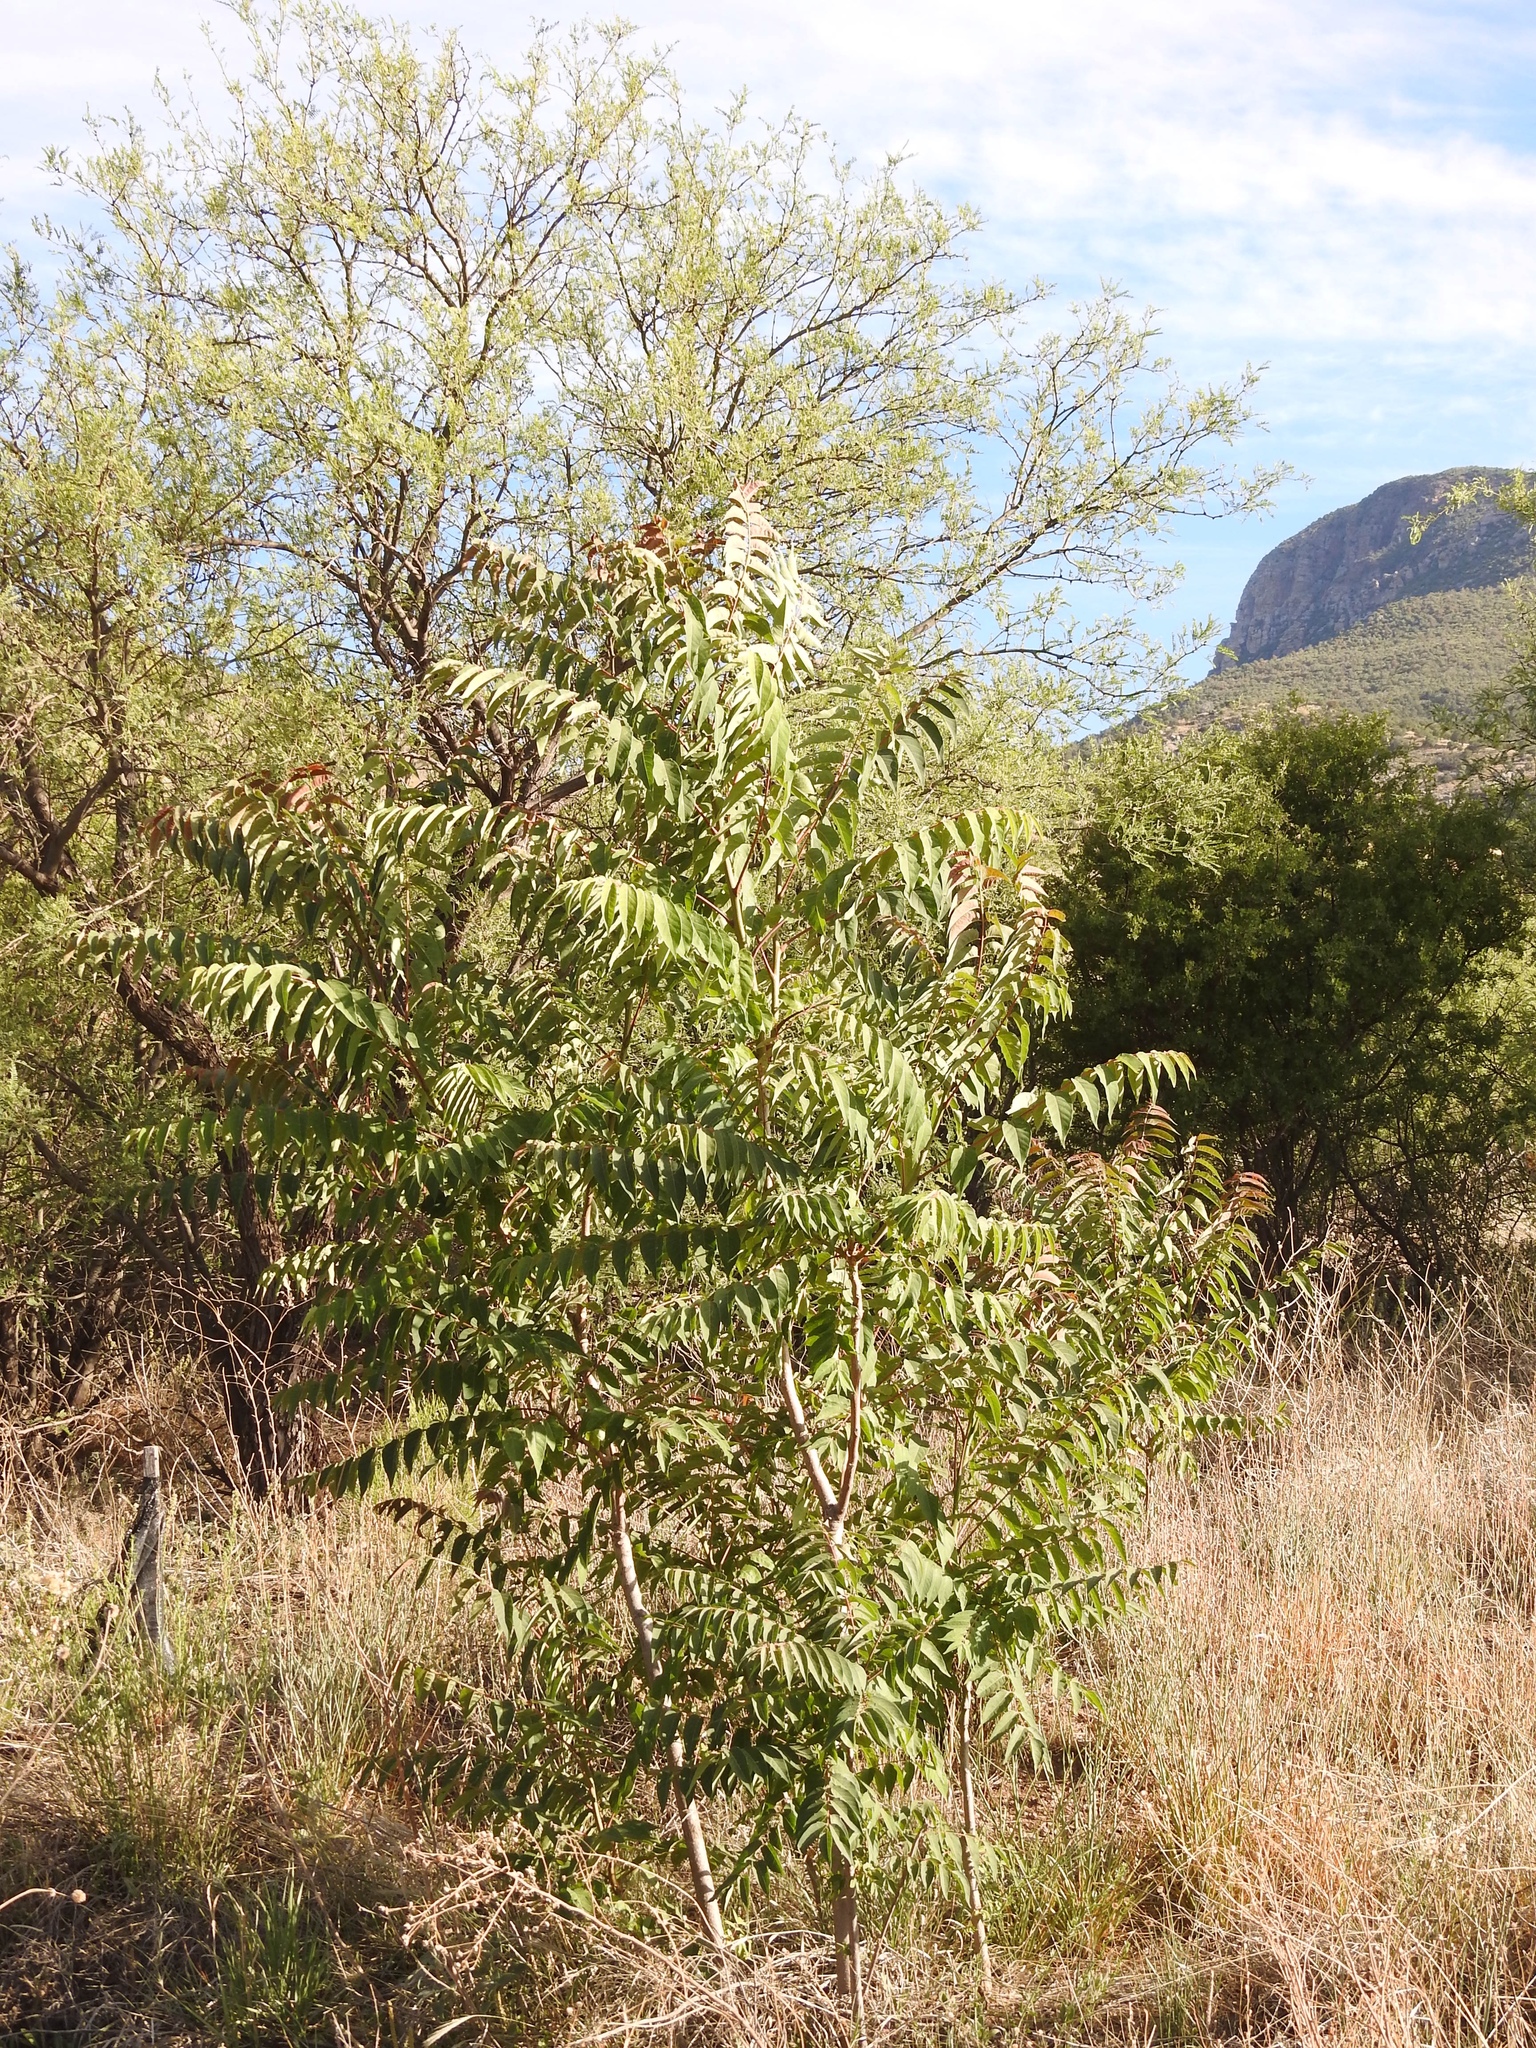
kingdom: Plantae
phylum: Tracheophyta
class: Magnoliopsida
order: Sapindales
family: Simaroubaceae
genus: Ailanthus
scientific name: Ailanthus altissima
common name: Tree-of-heaven
